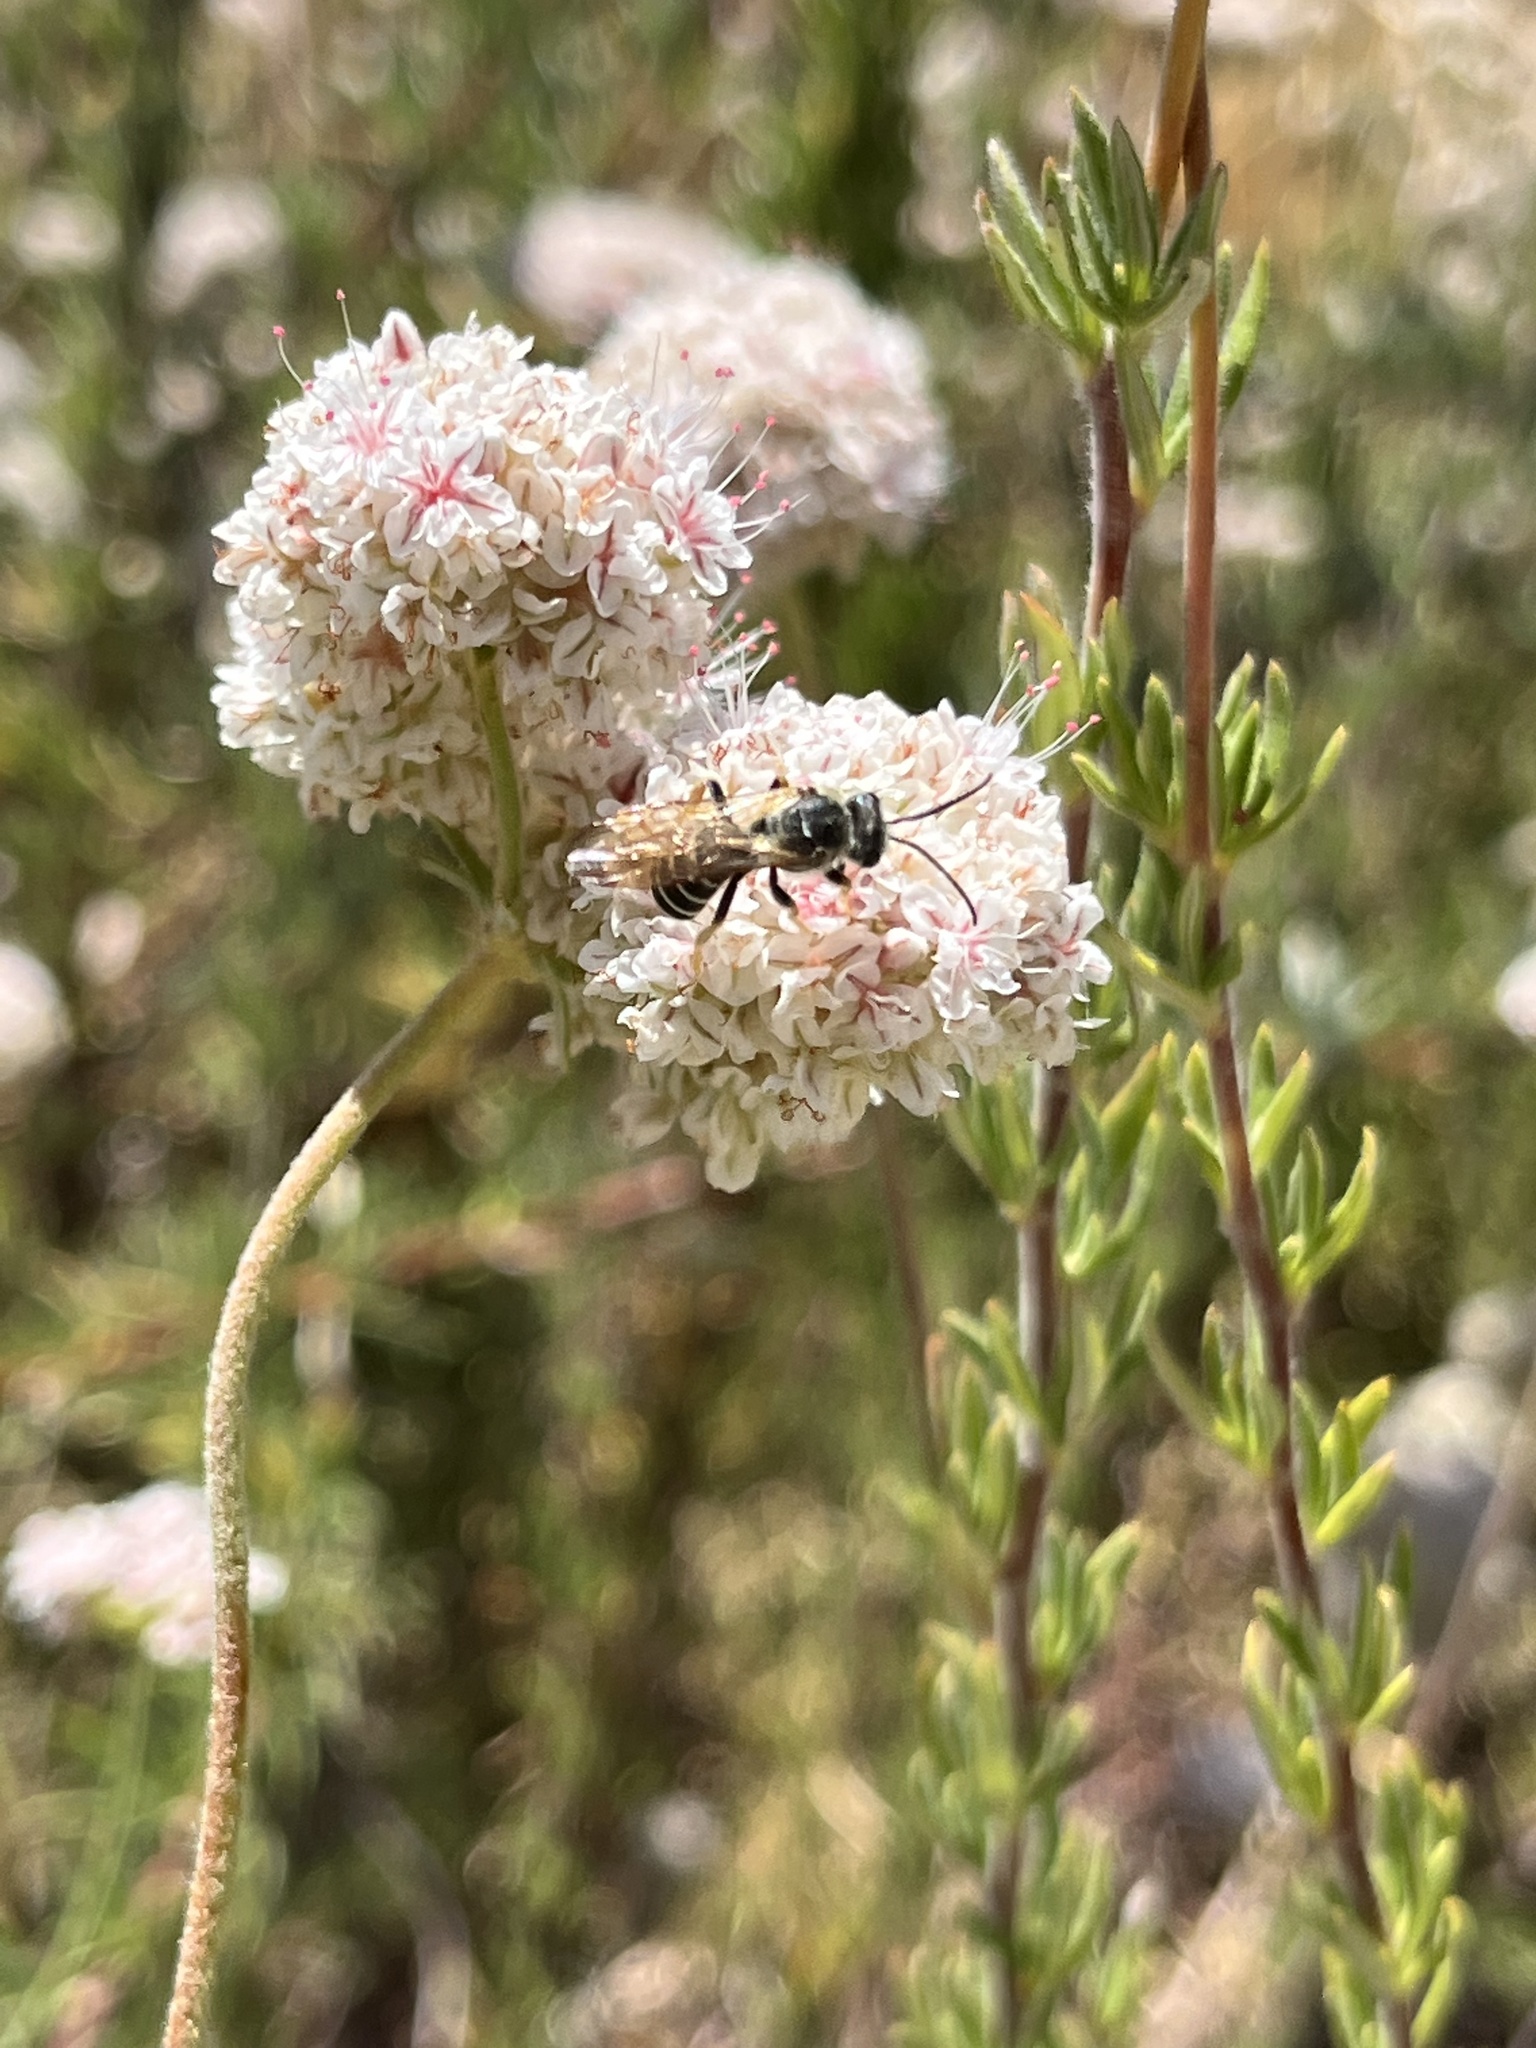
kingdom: Animalia
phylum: Arthropoda
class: Insecta
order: Hymenoptera
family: Halictidae
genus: Halictus
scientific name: Halictus farinosus
